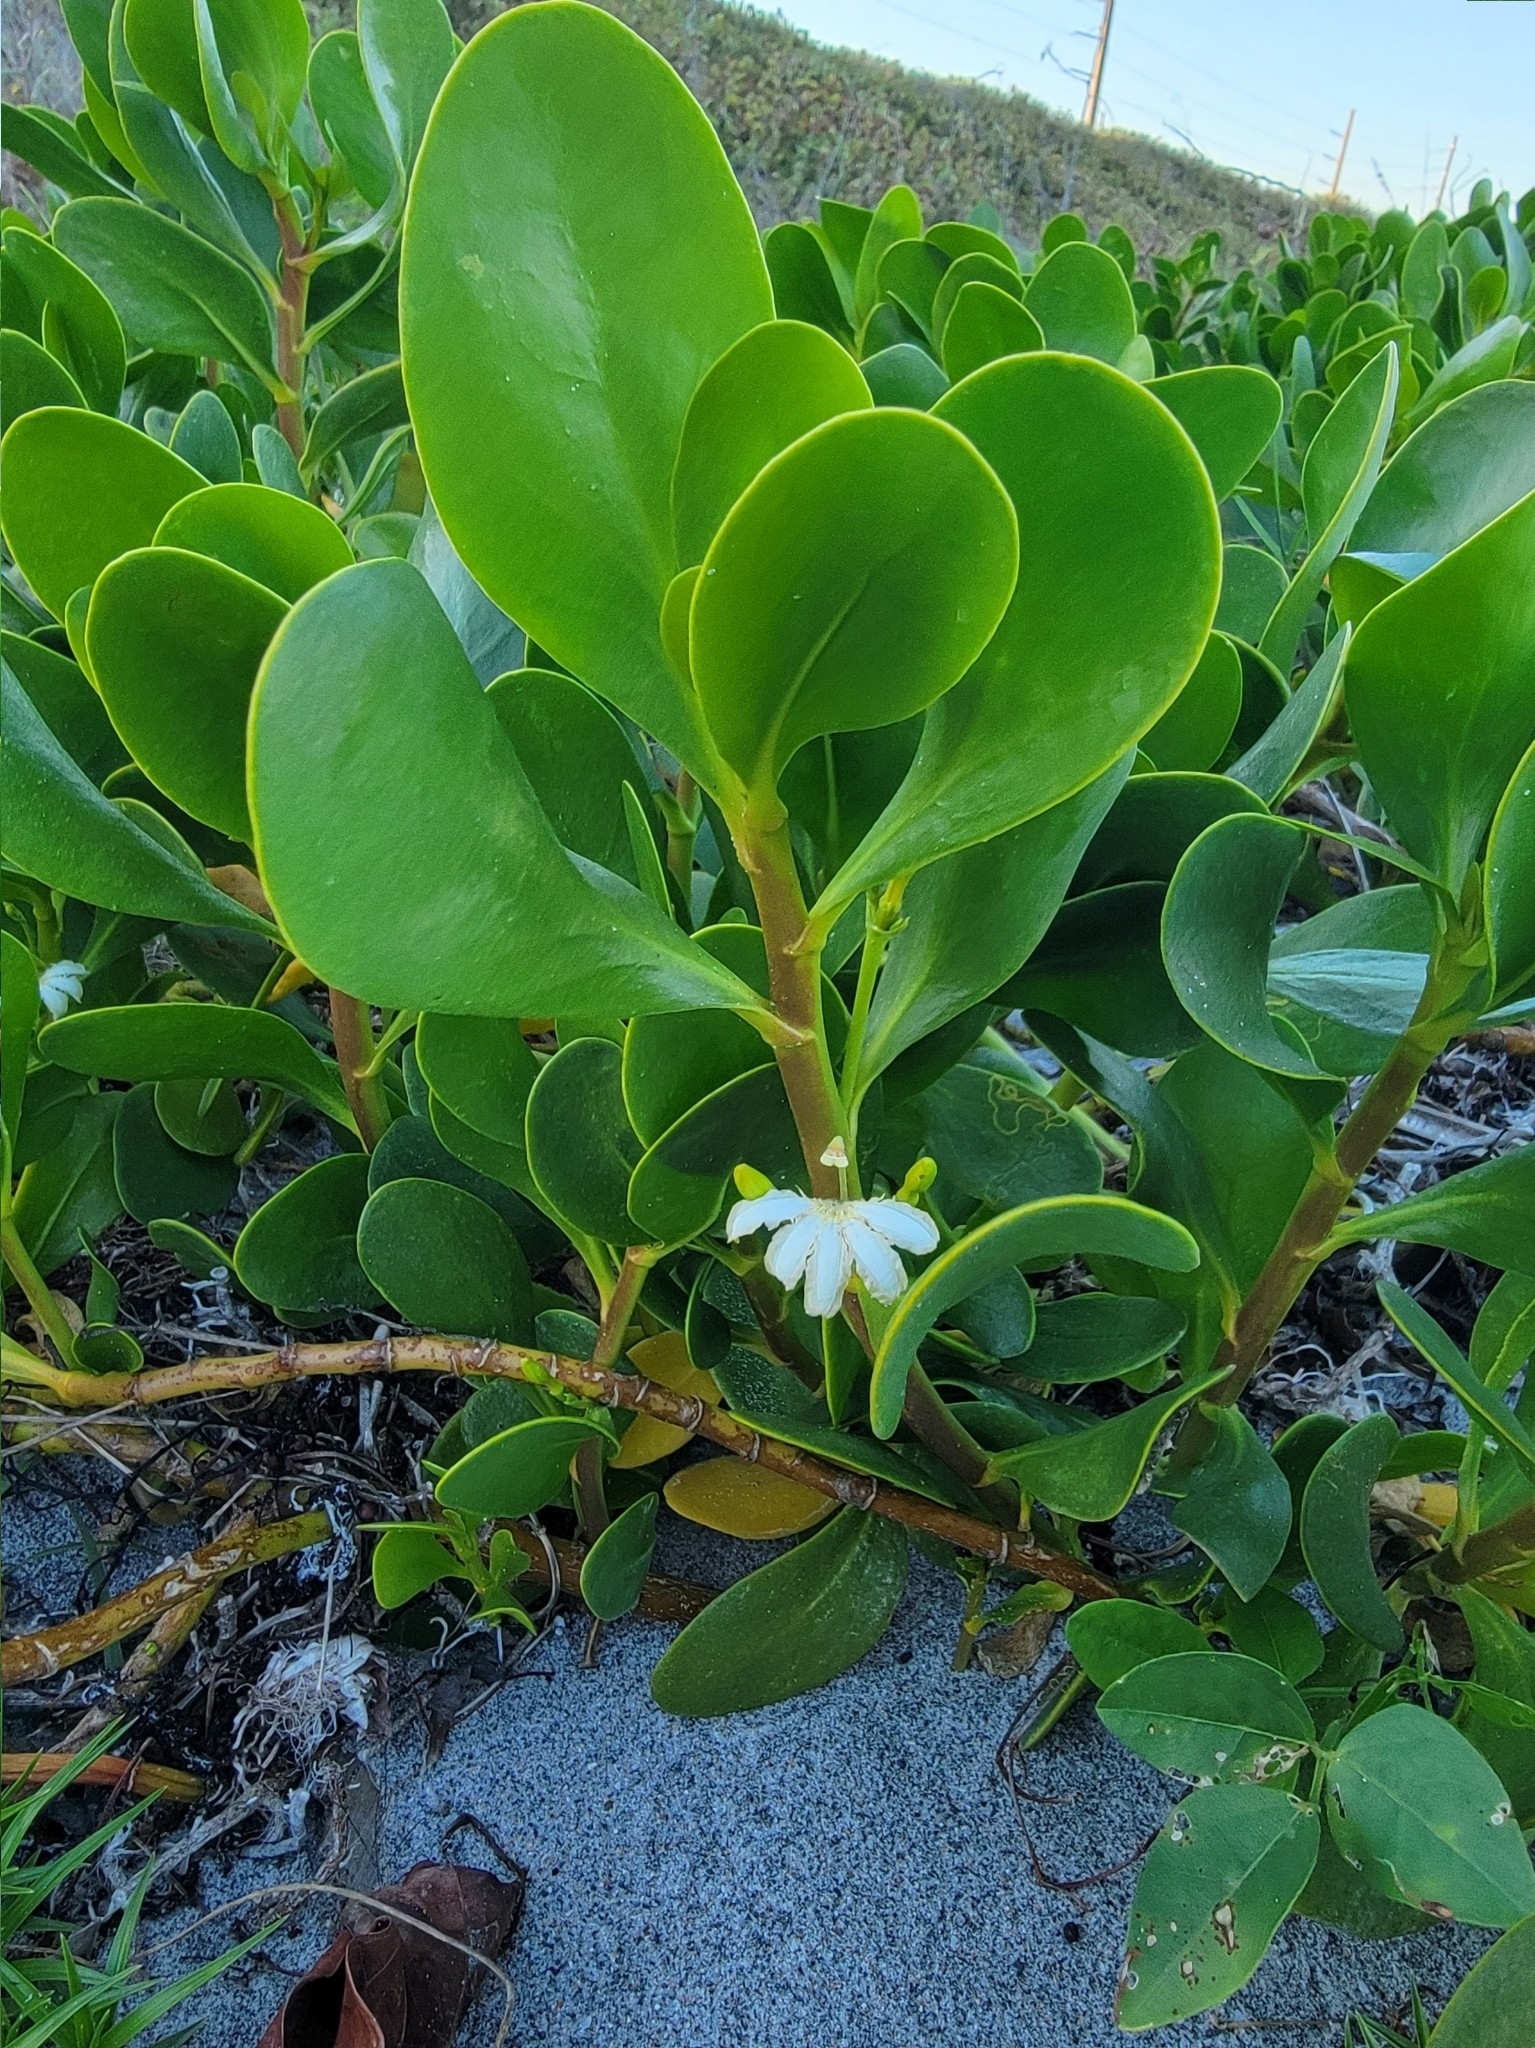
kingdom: Plantae
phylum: Tracheophyta
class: Magnoliopsida
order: Asterales
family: Goodeniaceae
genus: Scaevola
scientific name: Scaevola plumieri
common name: Gull feed
